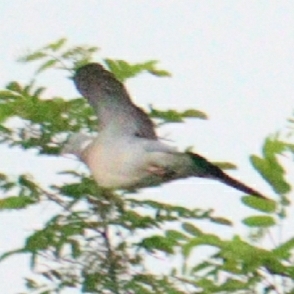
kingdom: Animalia
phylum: Chordata
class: Aves
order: Columbiformes
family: Columbidae
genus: Columba
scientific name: Columba palumbus
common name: Common wood pigeon
